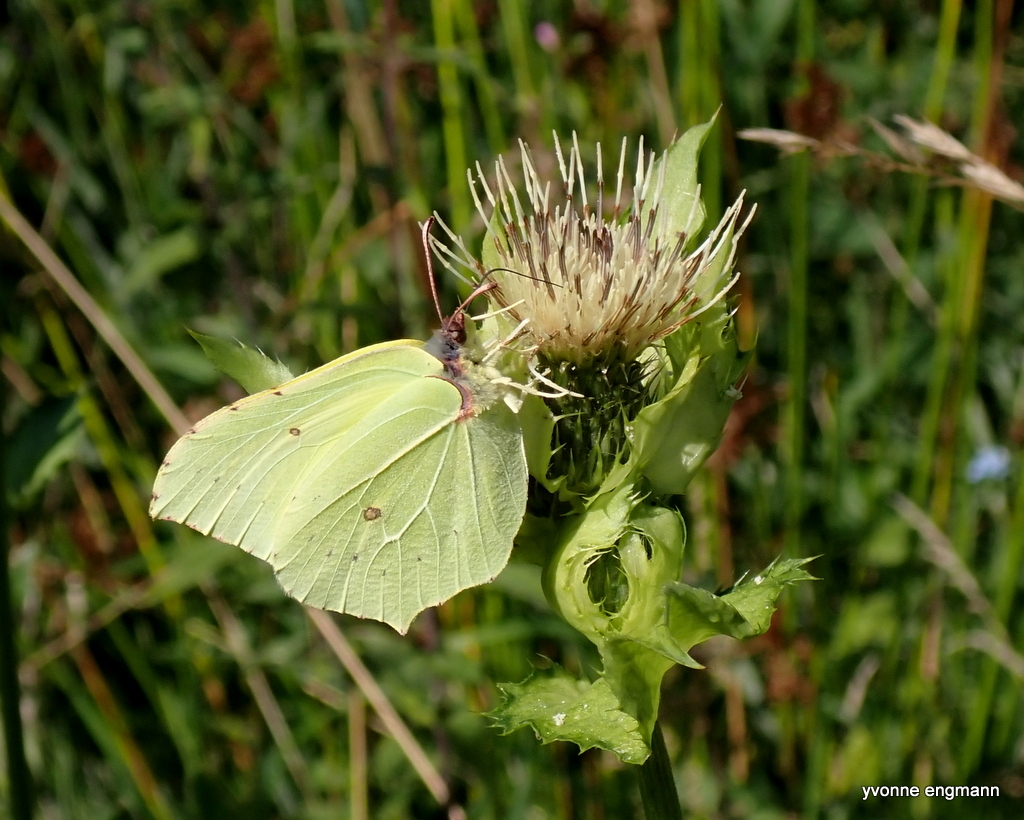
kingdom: Animalia
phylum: Arthropoda
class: Insecta
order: Lepidoptera
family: Pieridae
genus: Gonepteryx
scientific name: Gonepteryx rhamni
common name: Brimstone
